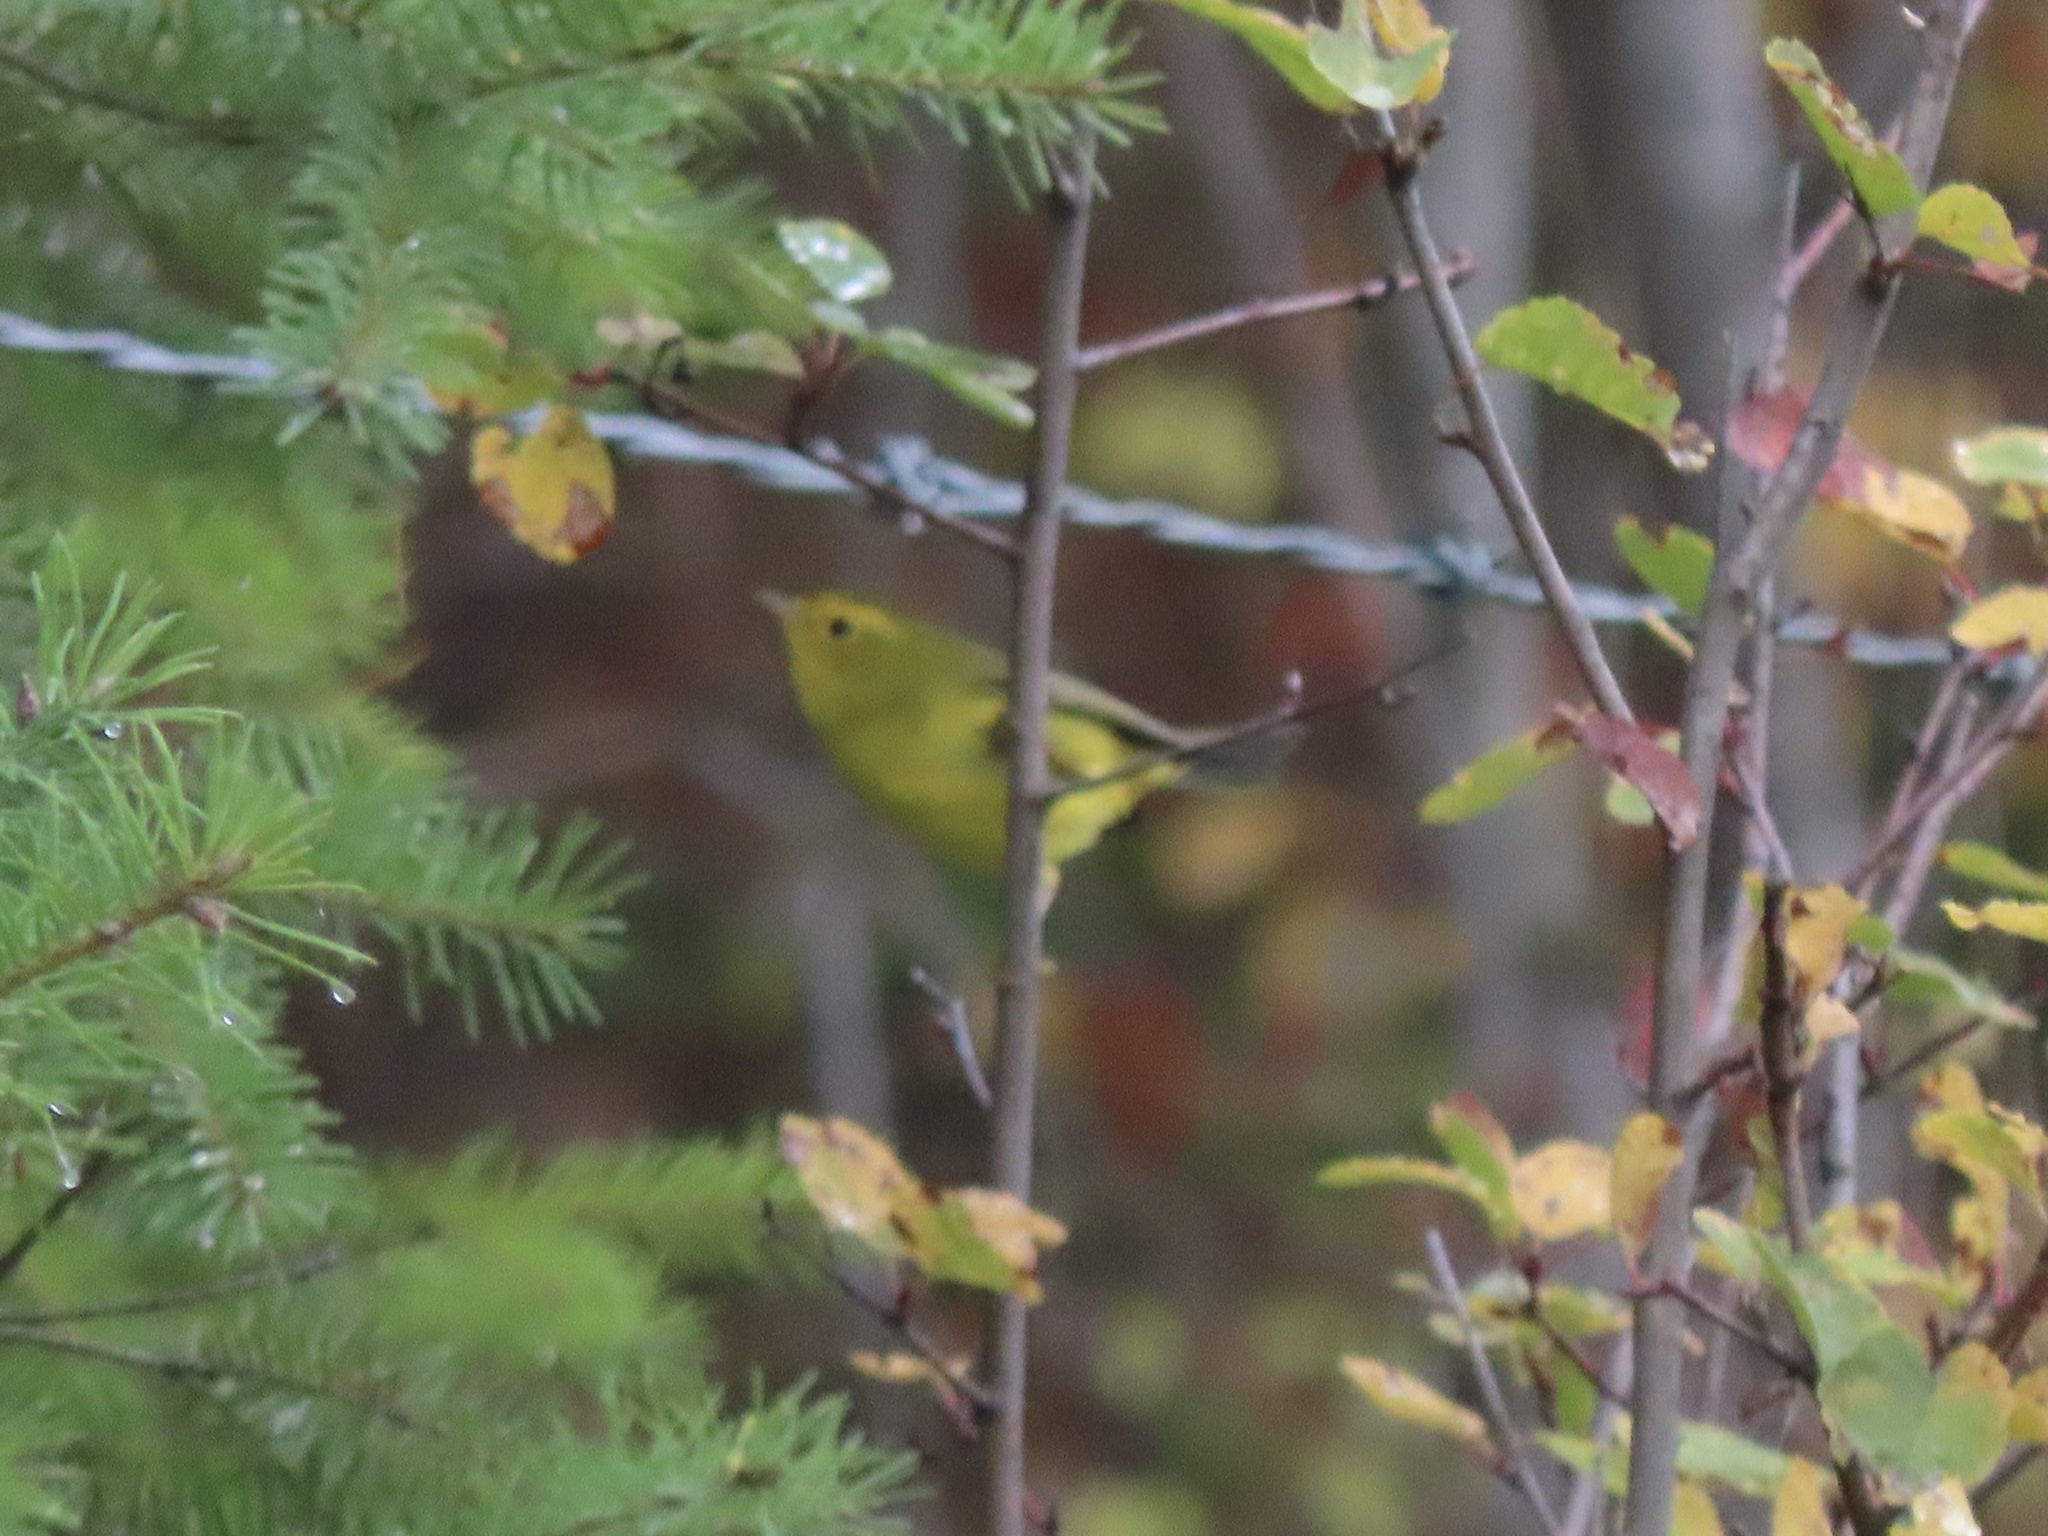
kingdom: Animalia
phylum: Chordata
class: Aves
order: Passeriformes
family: Parulidae
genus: Cardellina
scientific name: Cardellina pusilla
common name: Wilson's warbler
